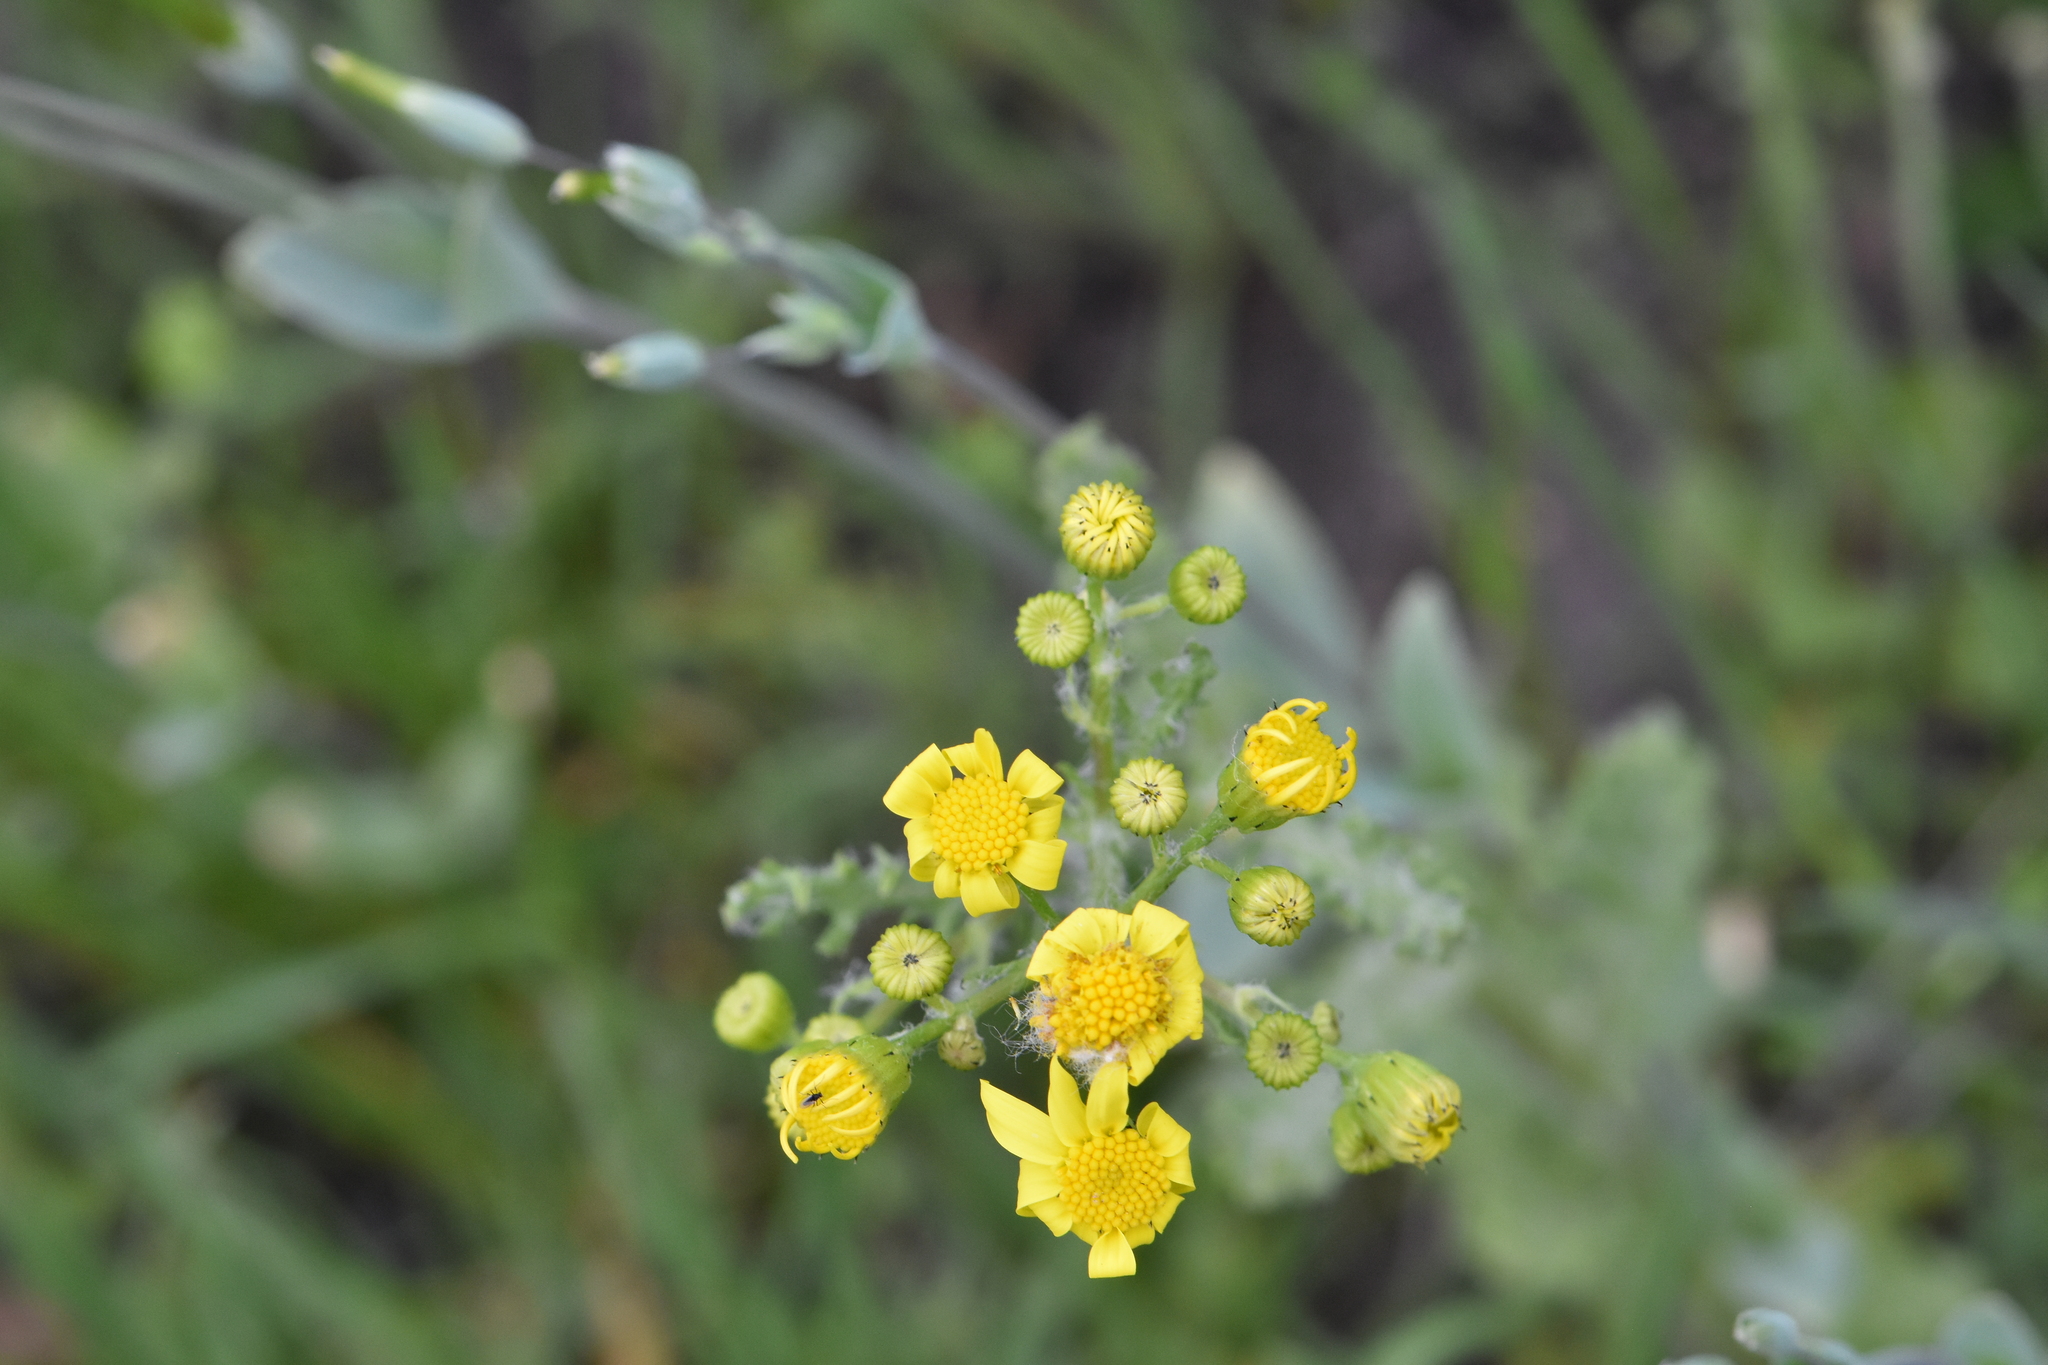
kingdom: Plantae
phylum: Tracheophyta
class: Magnoliopsida
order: Asterales
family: Asteraceae
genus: Senecio
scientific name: Senecio vernalis
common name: Eastern groundsel
